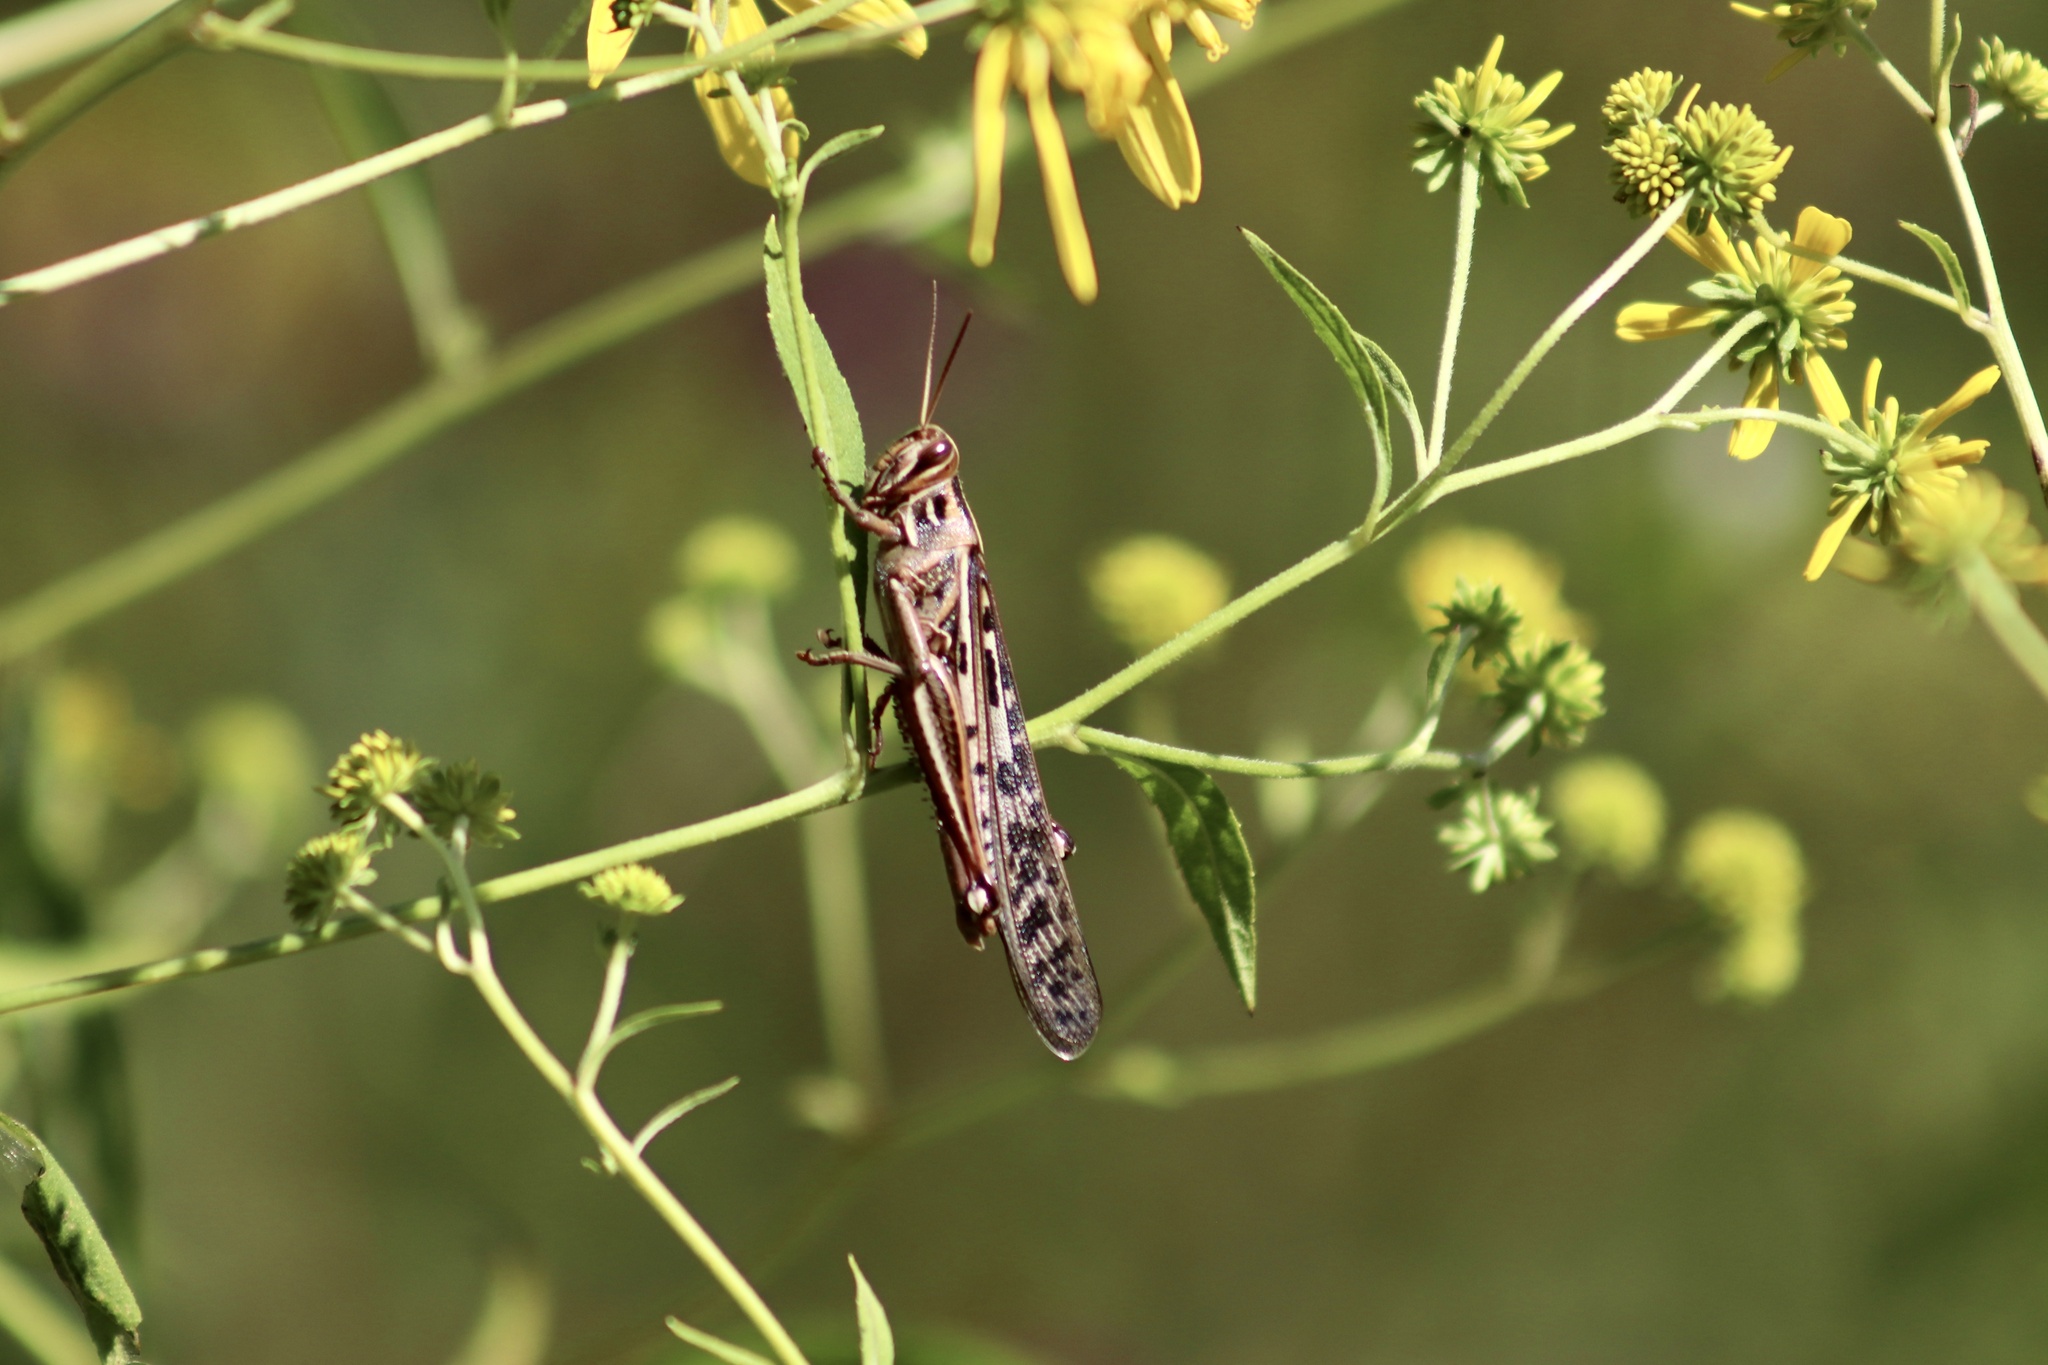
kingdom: Animalia
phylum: Arthropoda
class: Insecta
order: Orthoptera
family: Acrididae
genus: Schistocerca
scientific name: Schistocerca americana
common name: American bird locust
